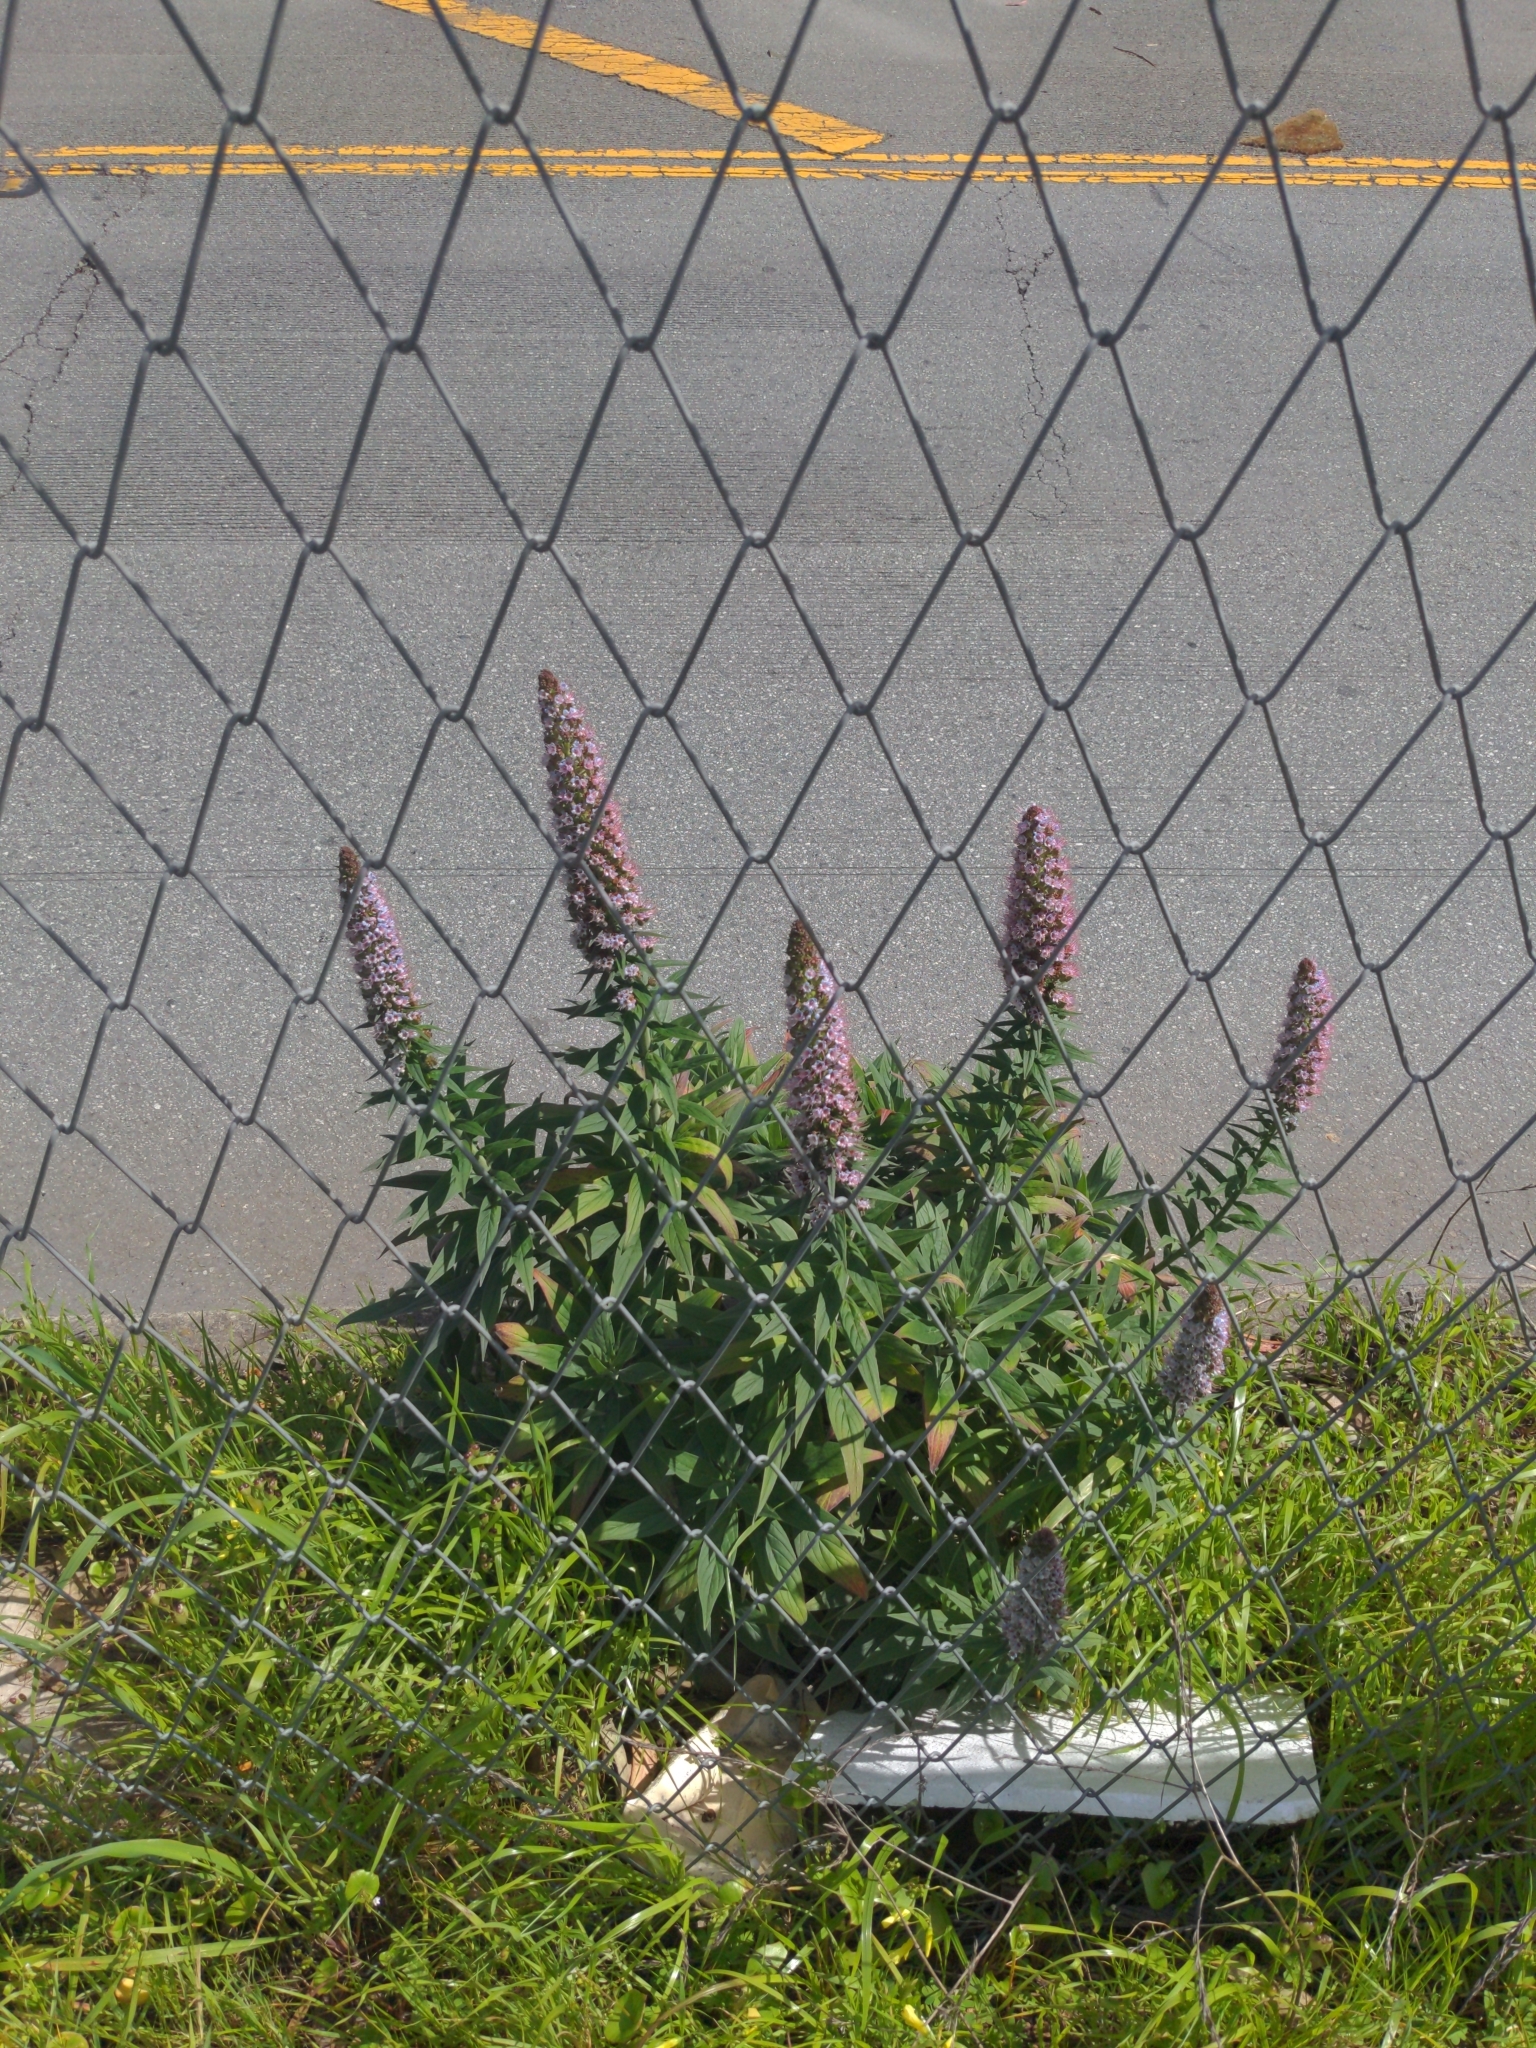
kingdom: Plantae
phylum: Tracheophyta
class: Magnoliopsida
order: Boraginales
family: Boraginaceae
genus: Echium
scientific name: Echium candicans
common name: Pride of madeira
